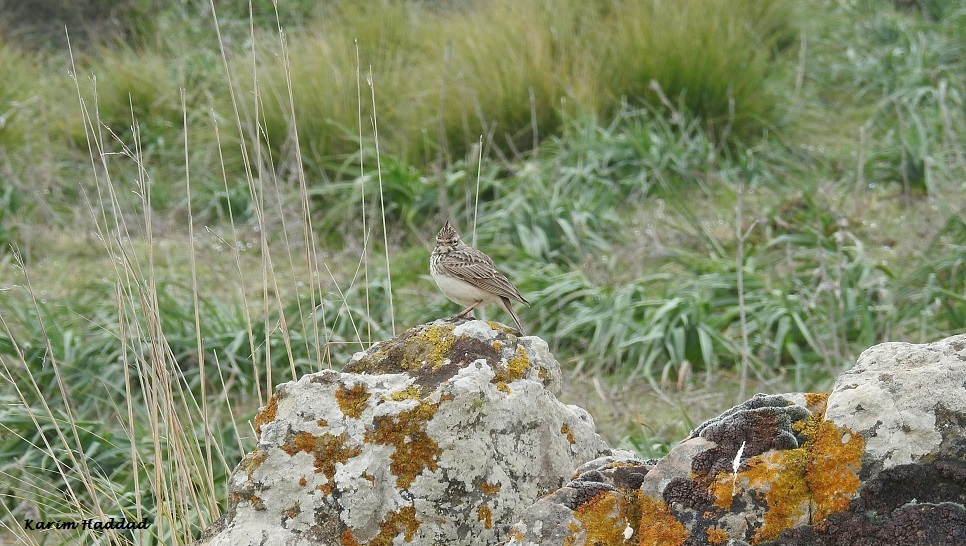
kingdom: Animalia
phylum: Chordata
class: Aves
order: Passeriformes
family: Alaudidae
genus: Galerida
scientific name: Galerida theklae
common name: Thekla lark
